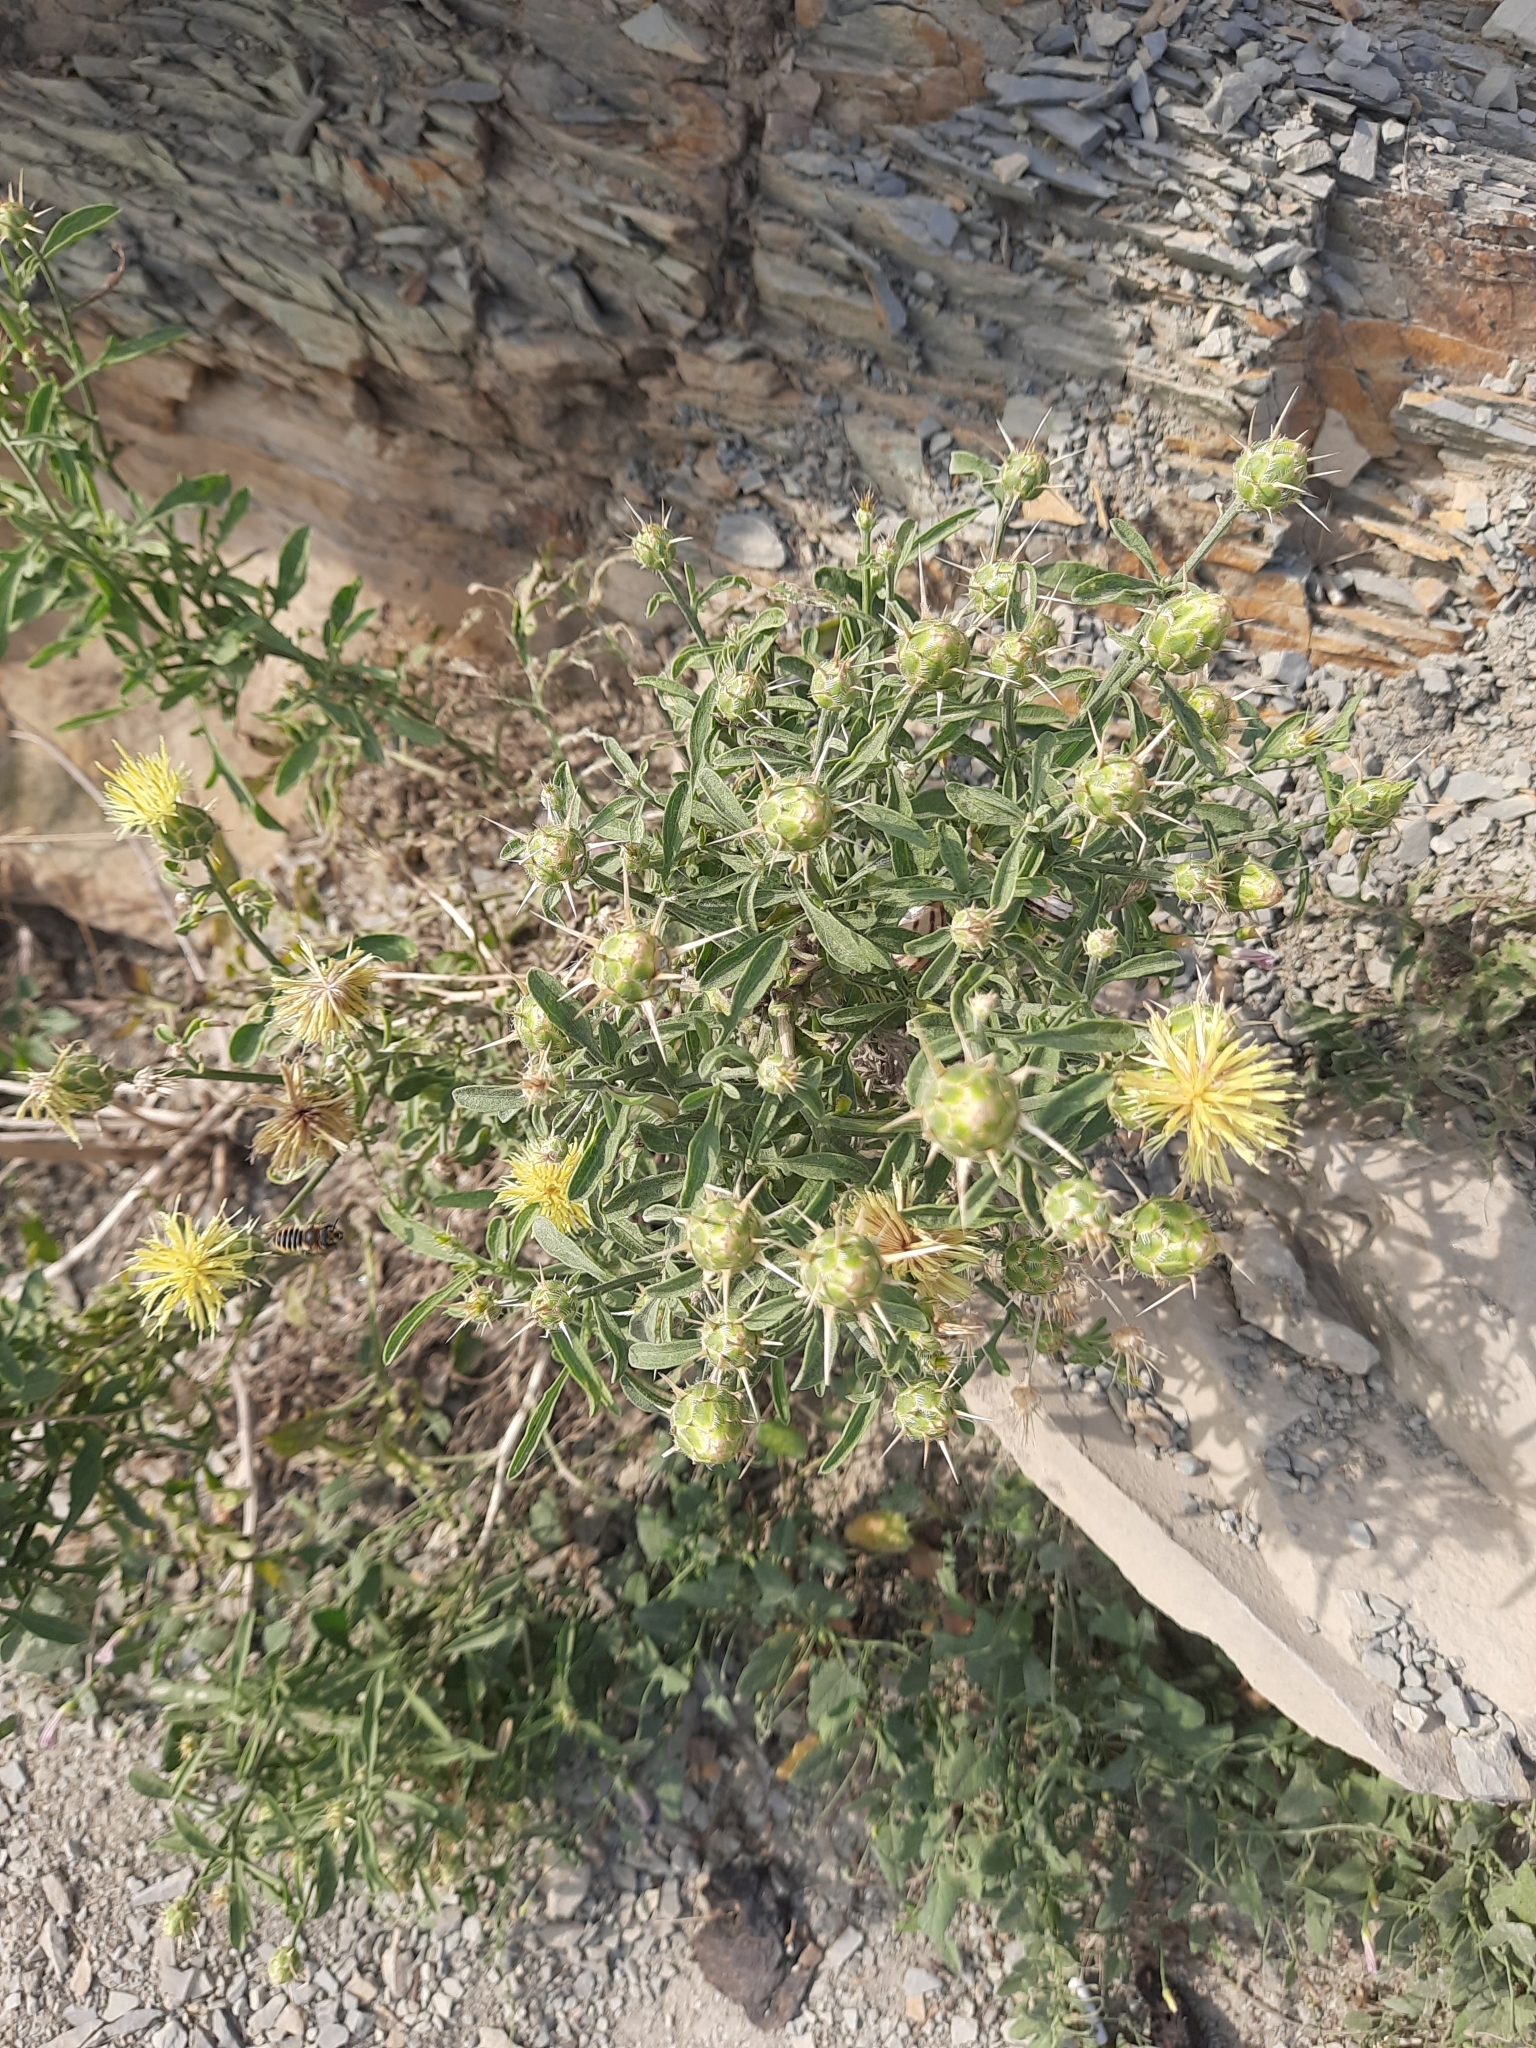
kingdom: Plantae
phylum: Tracheophyta
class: Magnoliopsida
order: Asterales
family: Asteraceae
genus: Centaurea
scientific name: Centaurea salonitana
